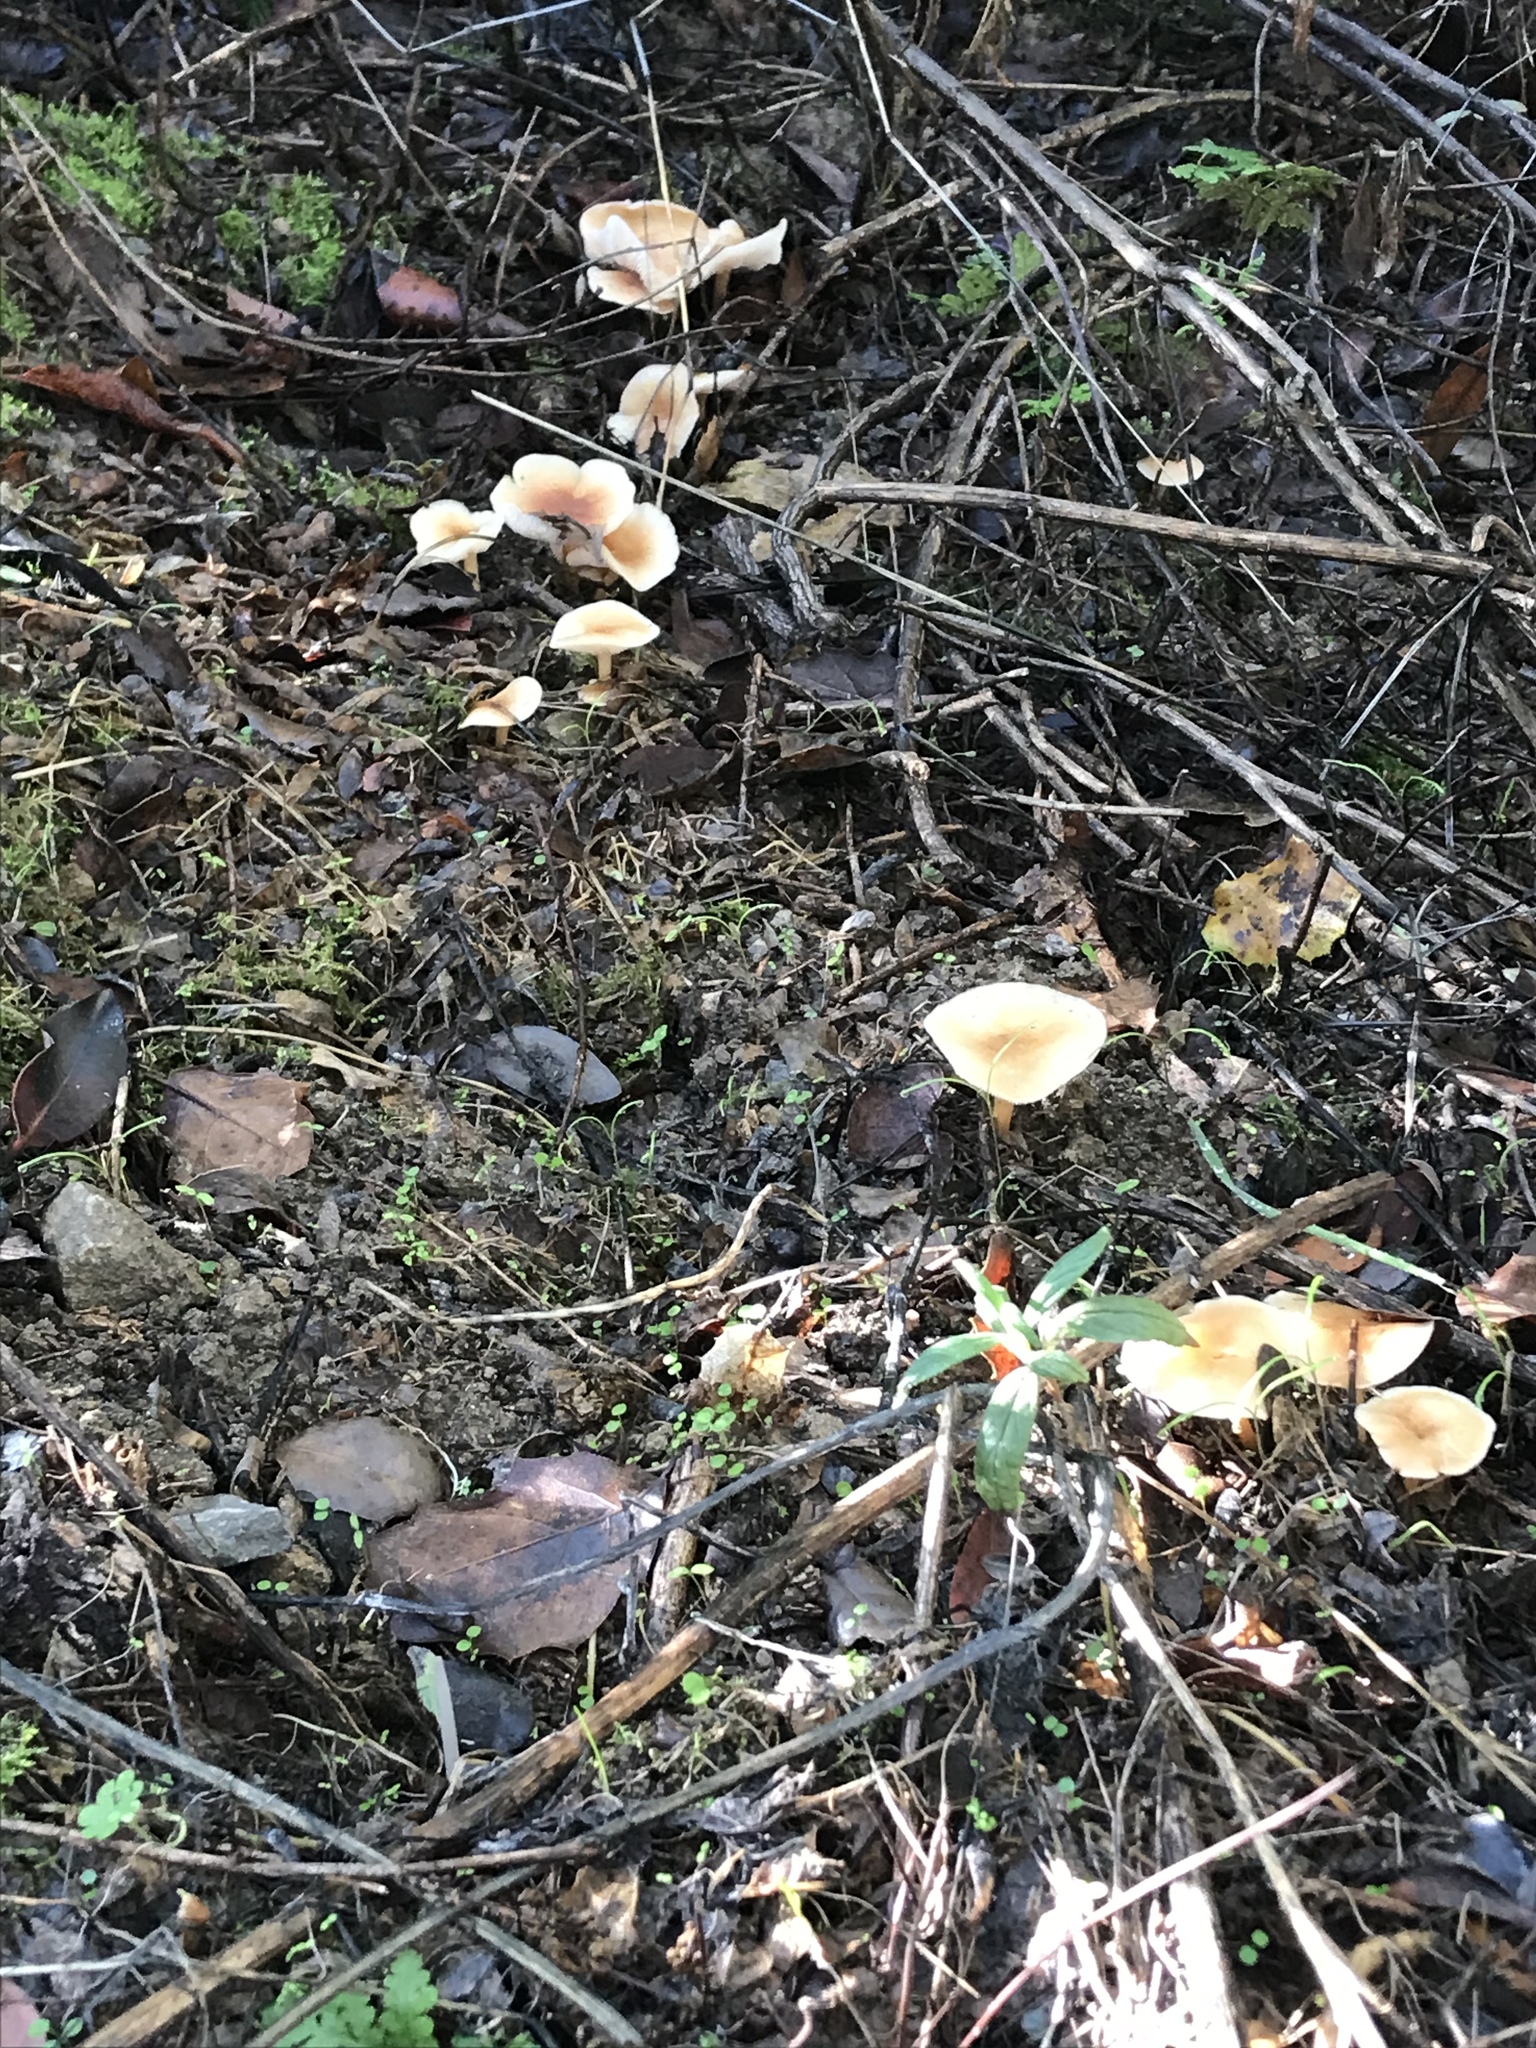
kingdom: Fungi
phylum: Basidiomycota
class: Agaricomycetes
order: Agaricales
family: Omphalotaceae
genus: Gymnopus
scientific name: Gymnopus dryophilus
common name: Penny top
